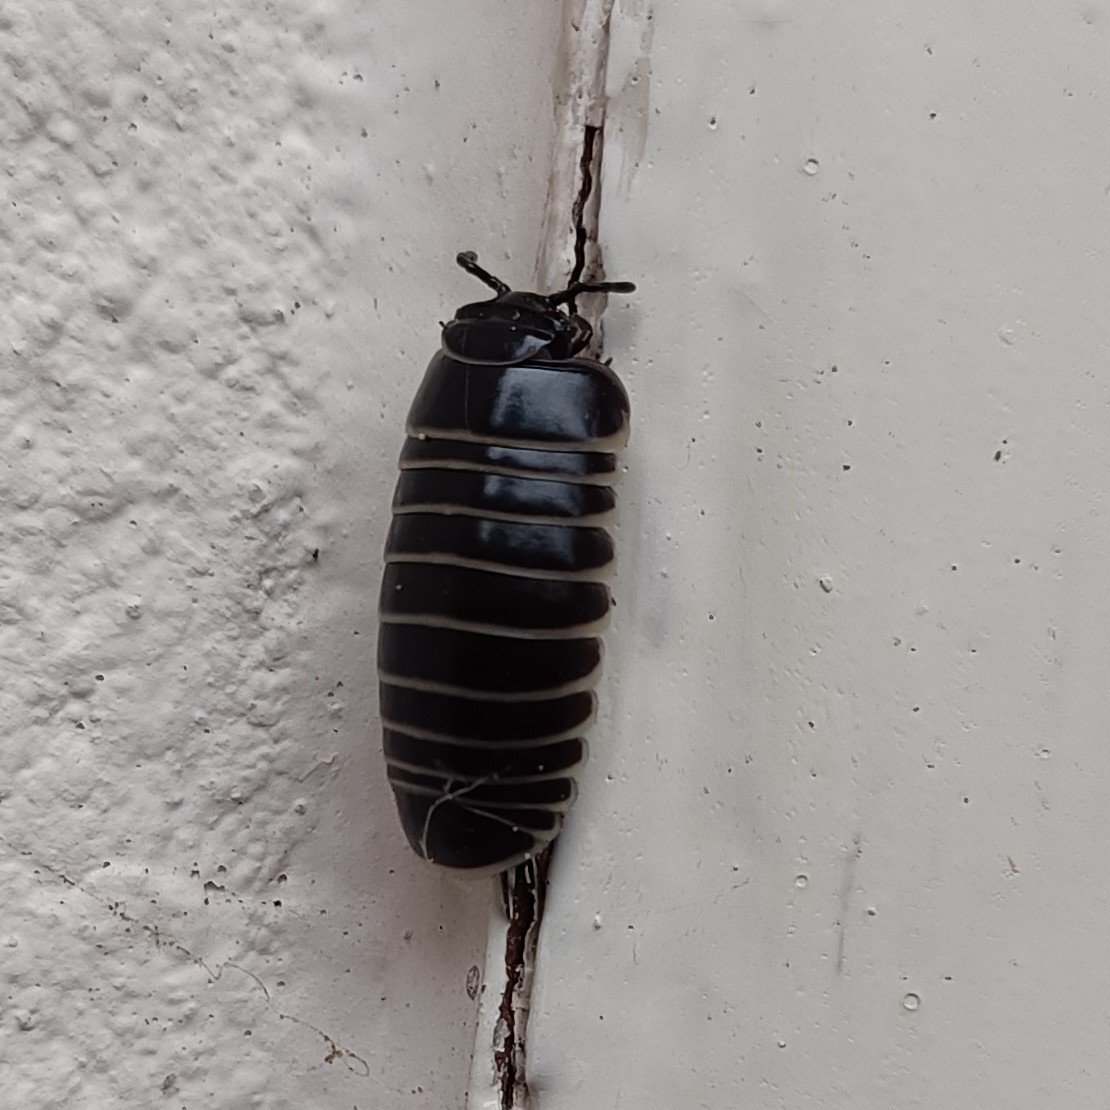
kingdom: Animalia
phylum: Arthropoda
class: Diplopoda
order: Glomerida
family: Glomeridae
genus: Glomeris
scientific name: Glomeris marginata
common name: Bordered pill millipede
